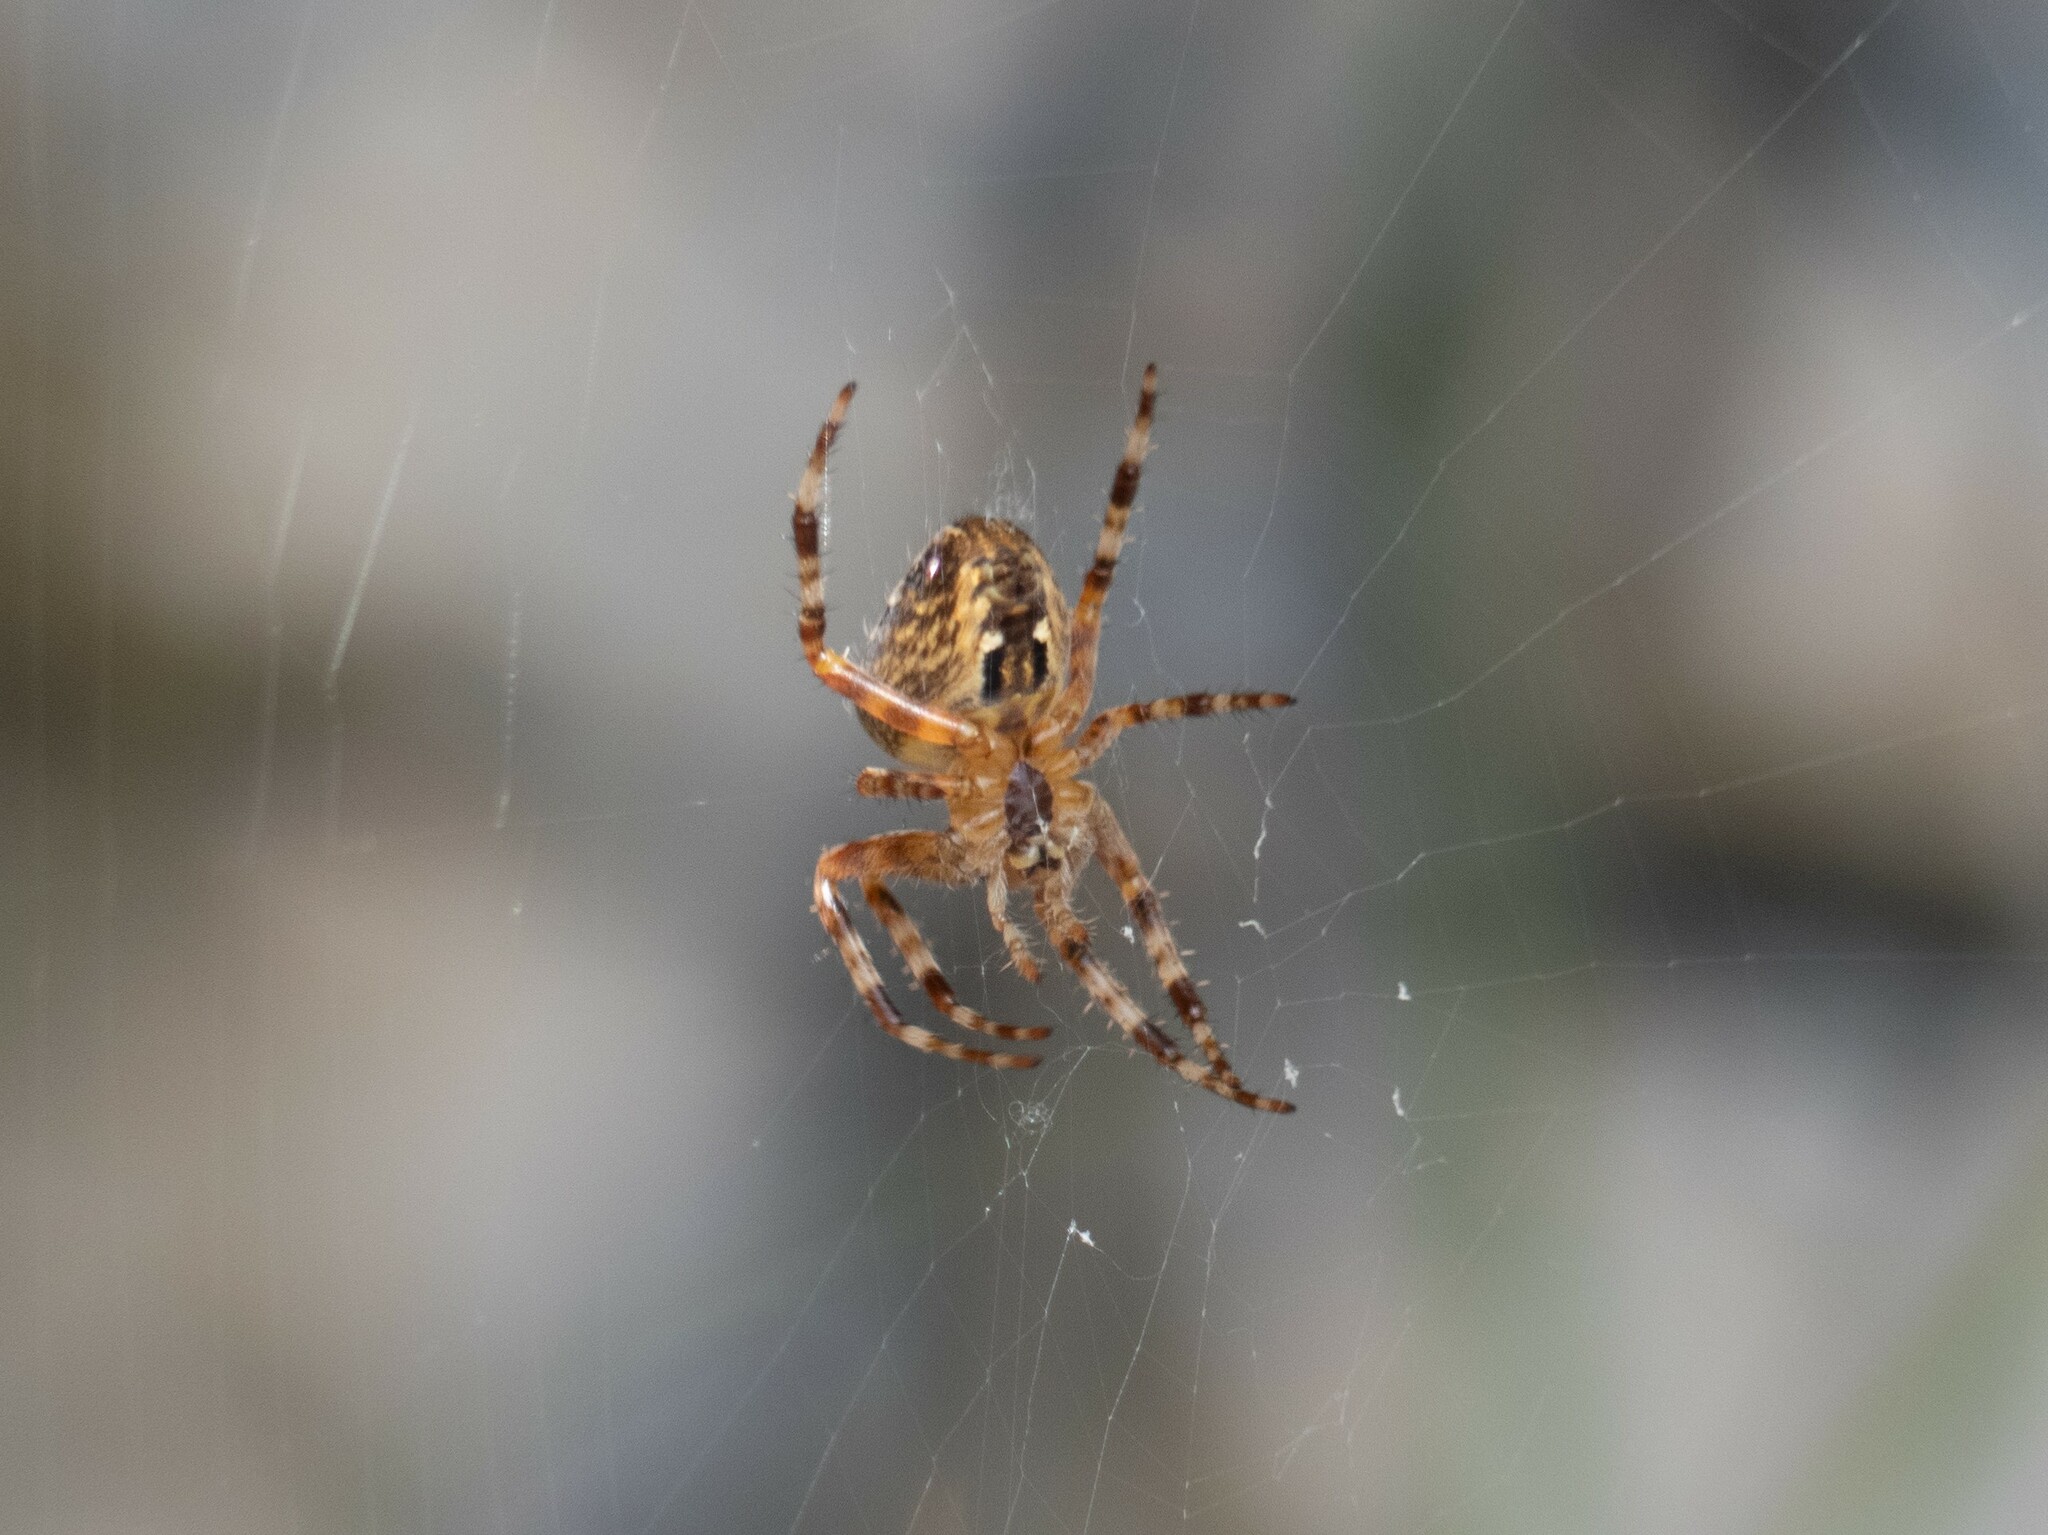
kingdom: Animalia
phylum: Arthropoda
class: Arachnida
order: Araneae
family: Araneidae
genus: Araneus
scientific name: Araneus diadematus
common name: Cross orbweaver
